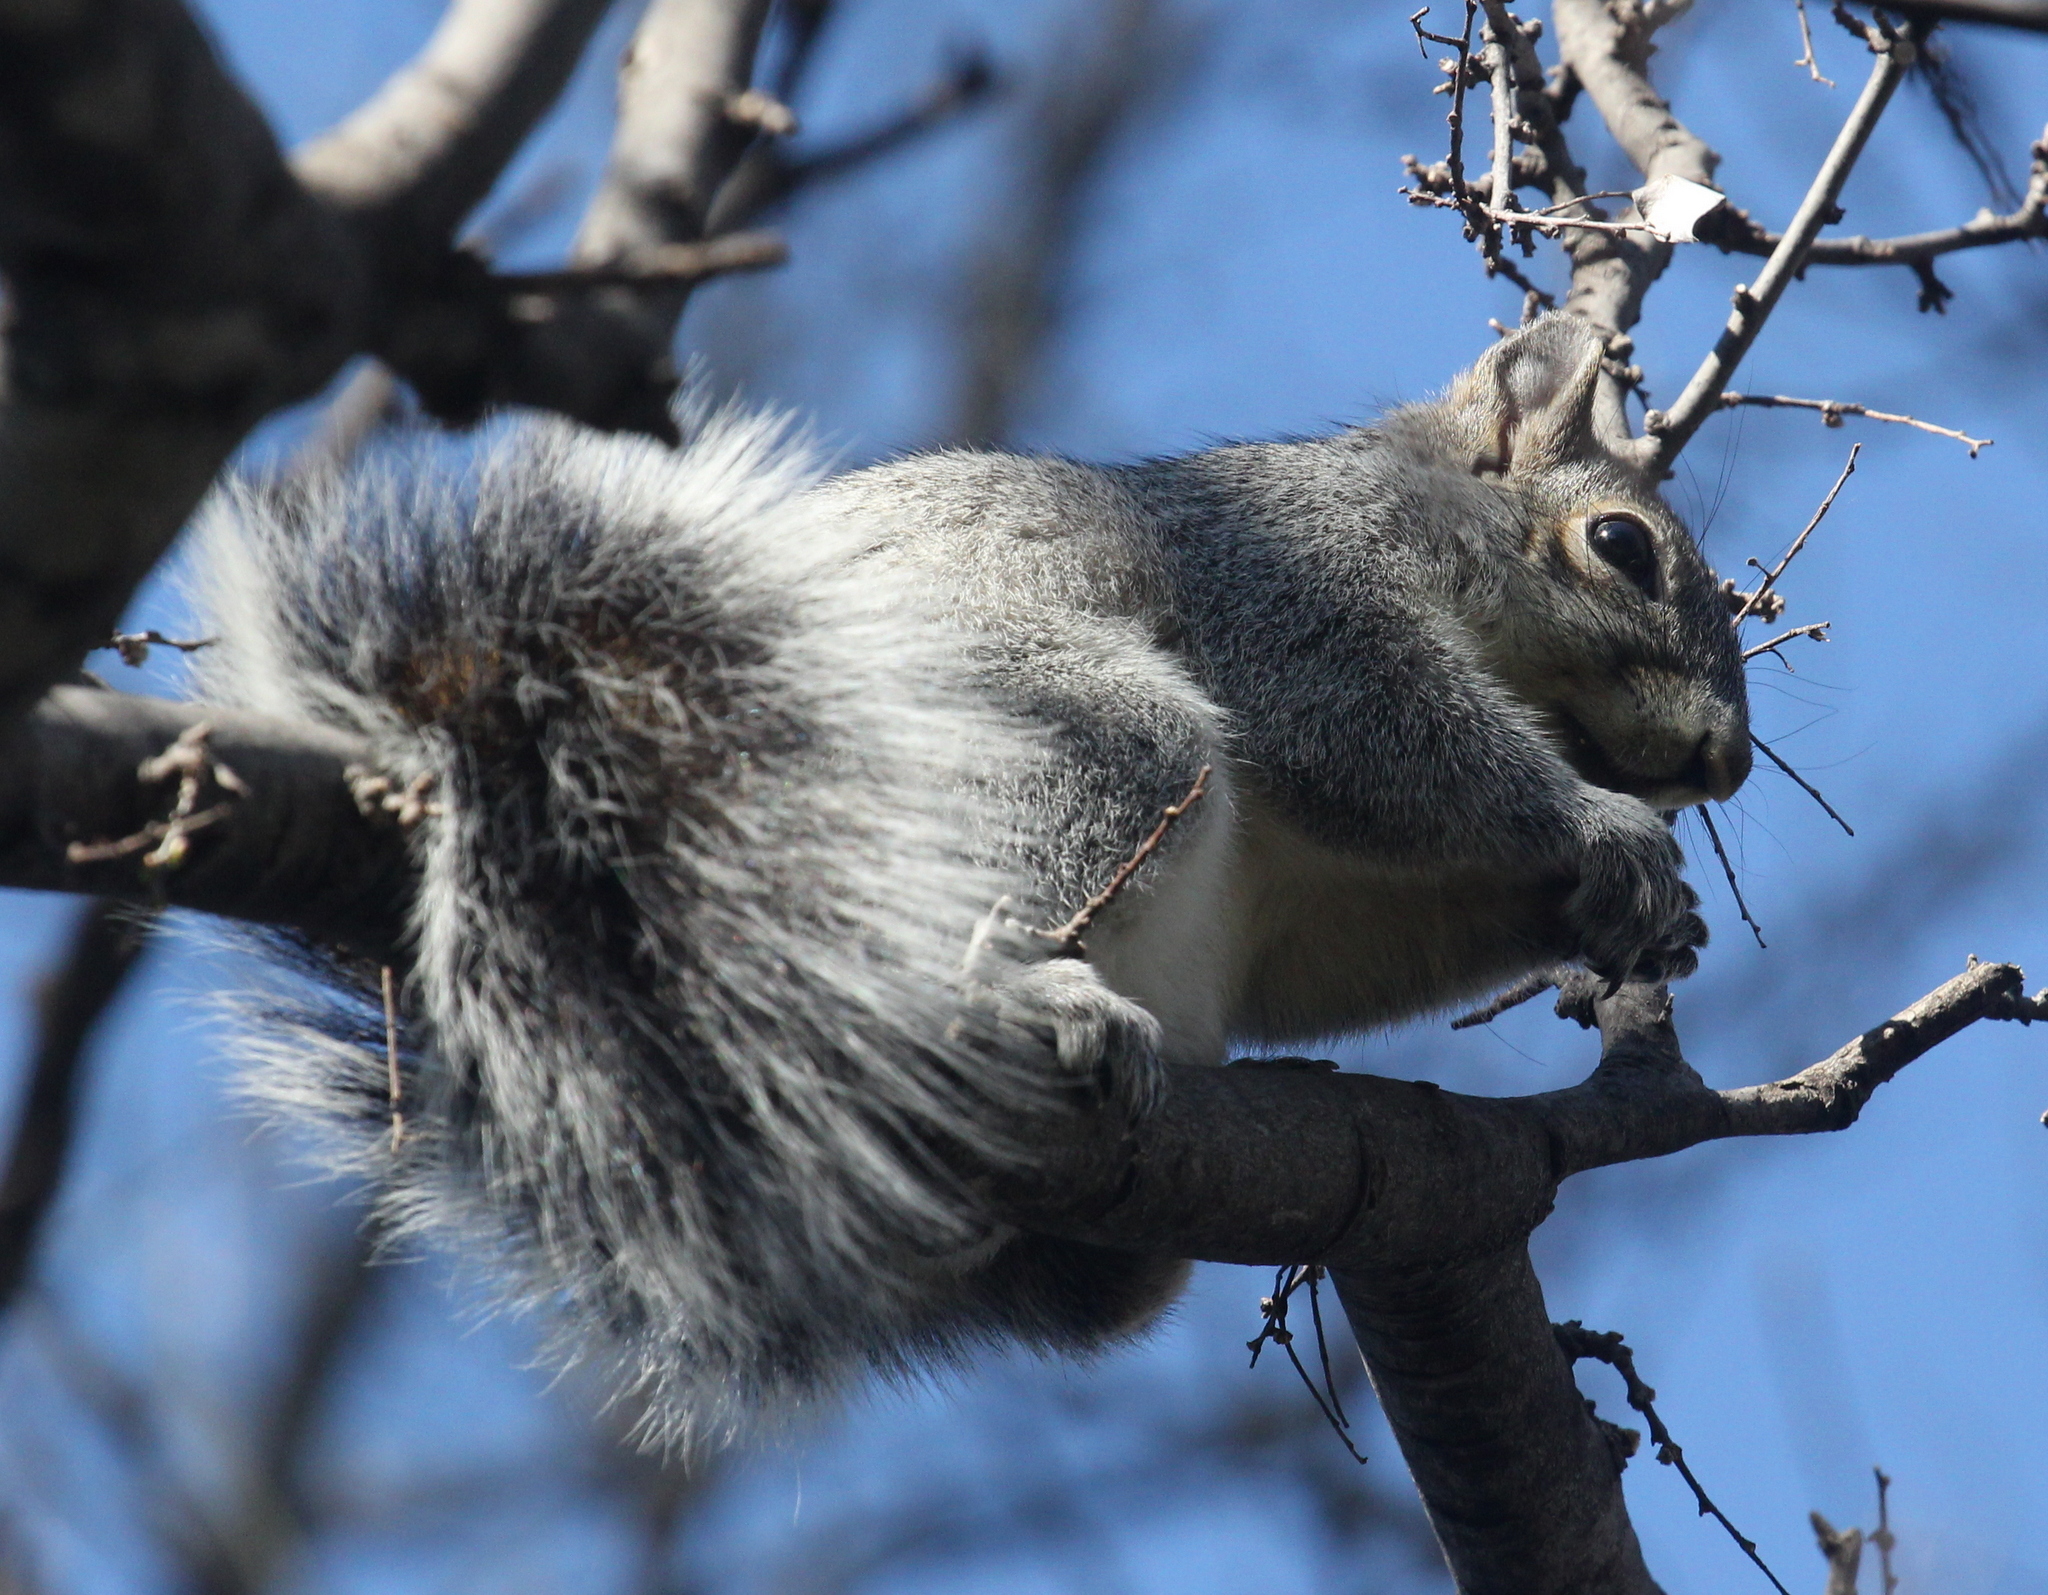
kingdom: Animalia
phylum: Chordata
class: Mammalia
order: Rodentia
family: Sciuridae
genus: Sciurus
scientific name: Sciurus arizonensis
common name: Arizona gray squirrel
